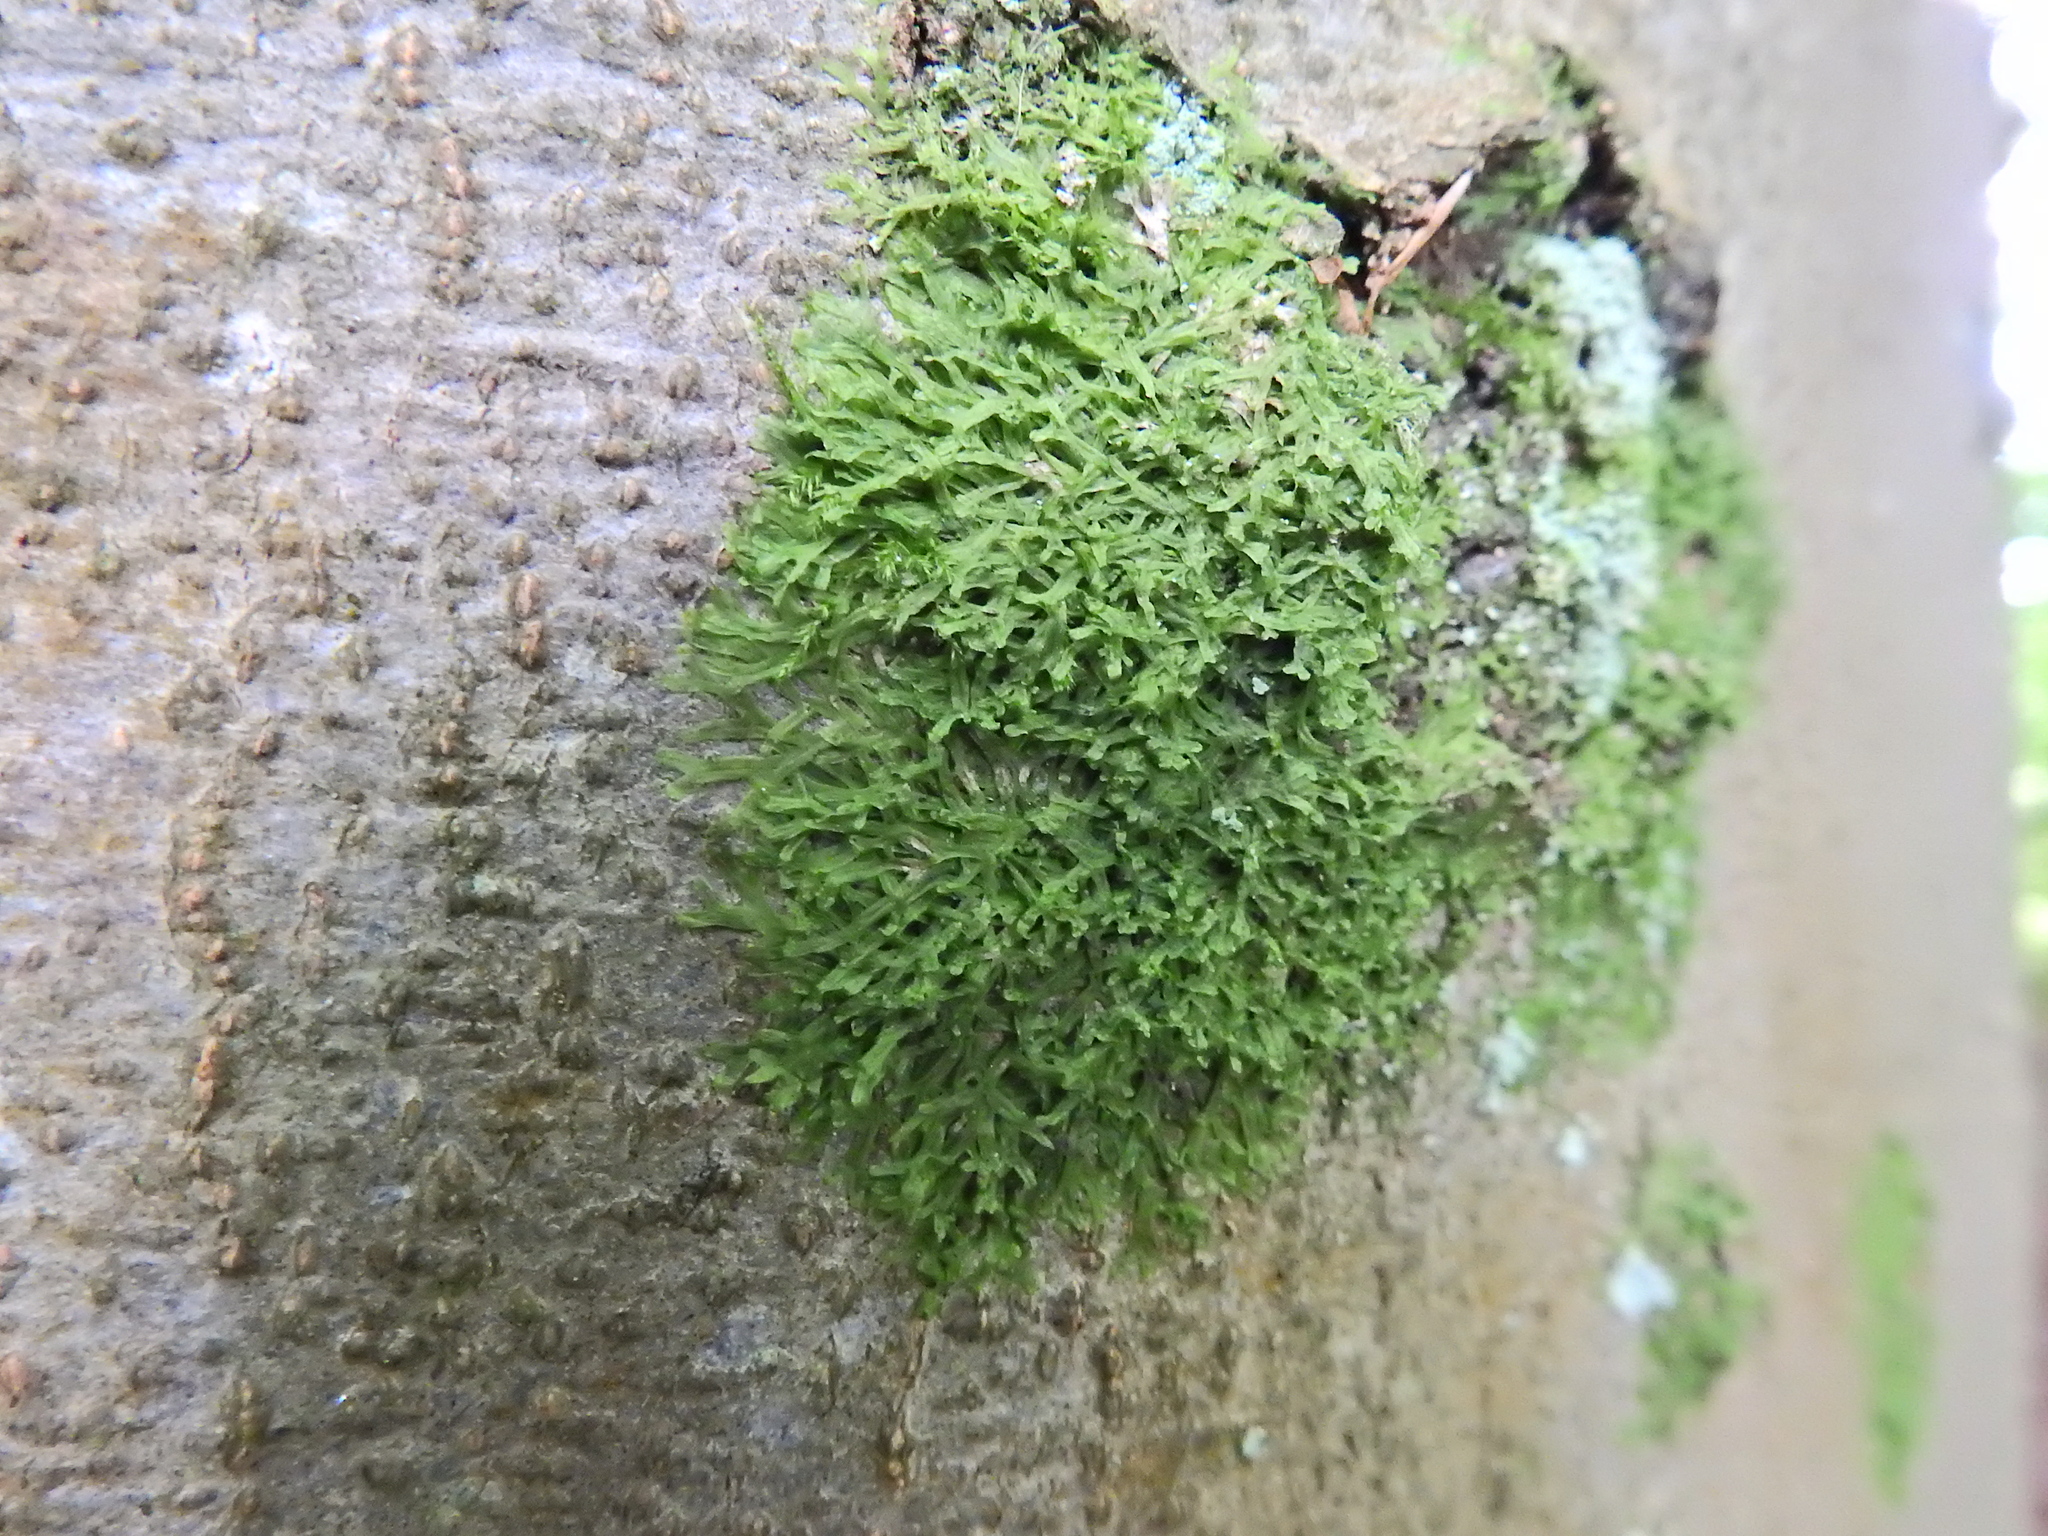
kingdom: Plantae
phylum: Marchantiophyta
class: Jungermanniopsida
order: Metzgeriales
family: Metzgeriaceae
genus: Metzgeria
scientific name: Metzgeria furcata
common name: Forked veilwort
